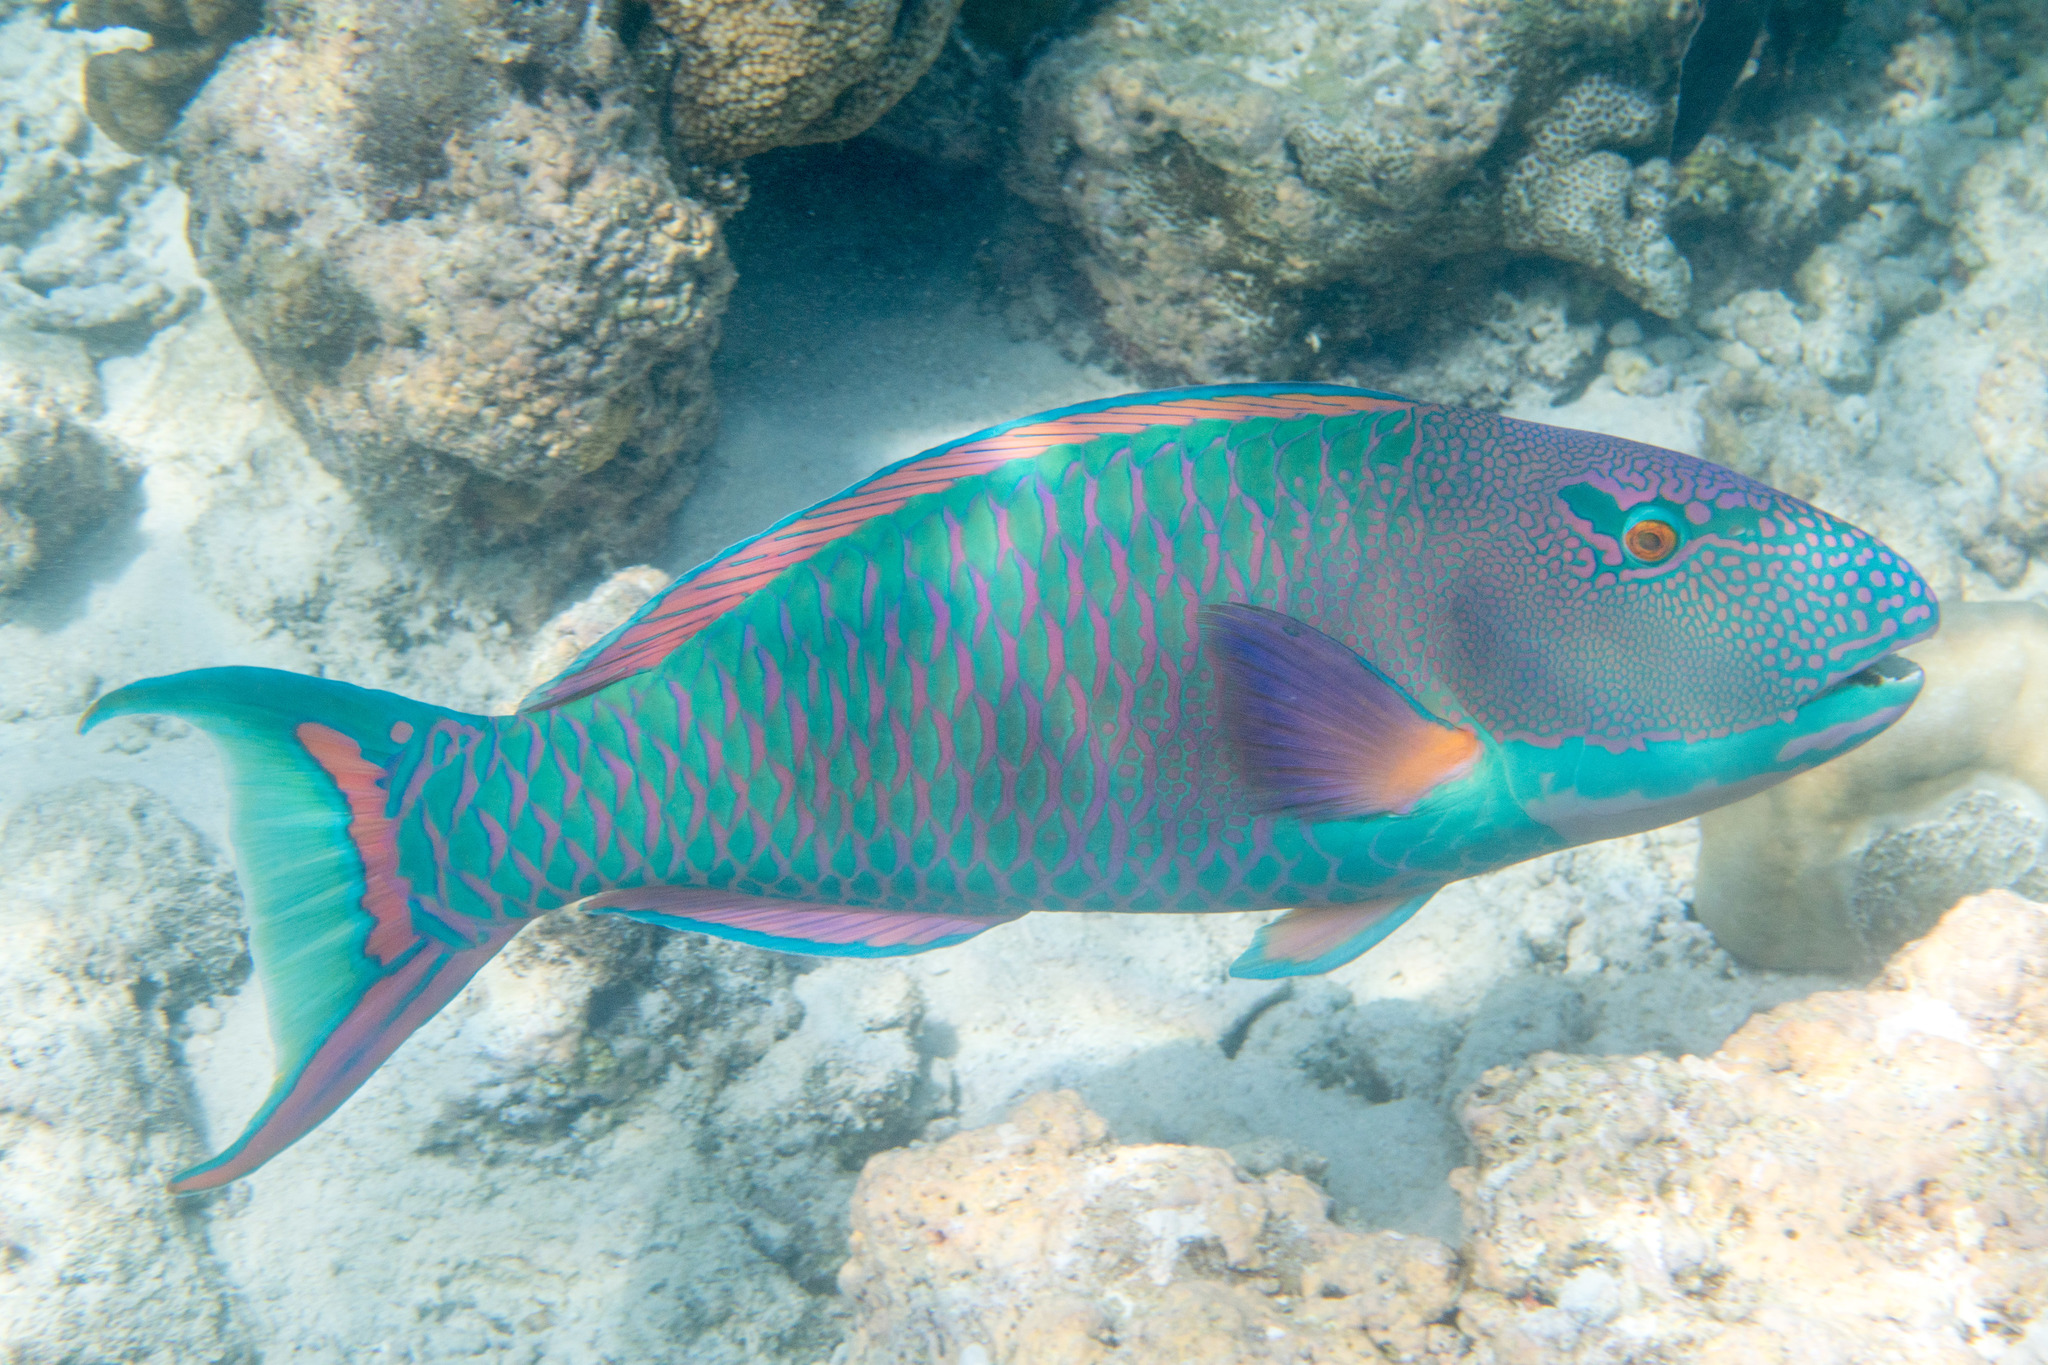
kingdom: Animalia
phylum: Chordata
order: Perciformes
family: Scaridae
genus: Cetoscarus
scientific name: Cetoscarus ocellatus
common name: Bicolor parrotfish
